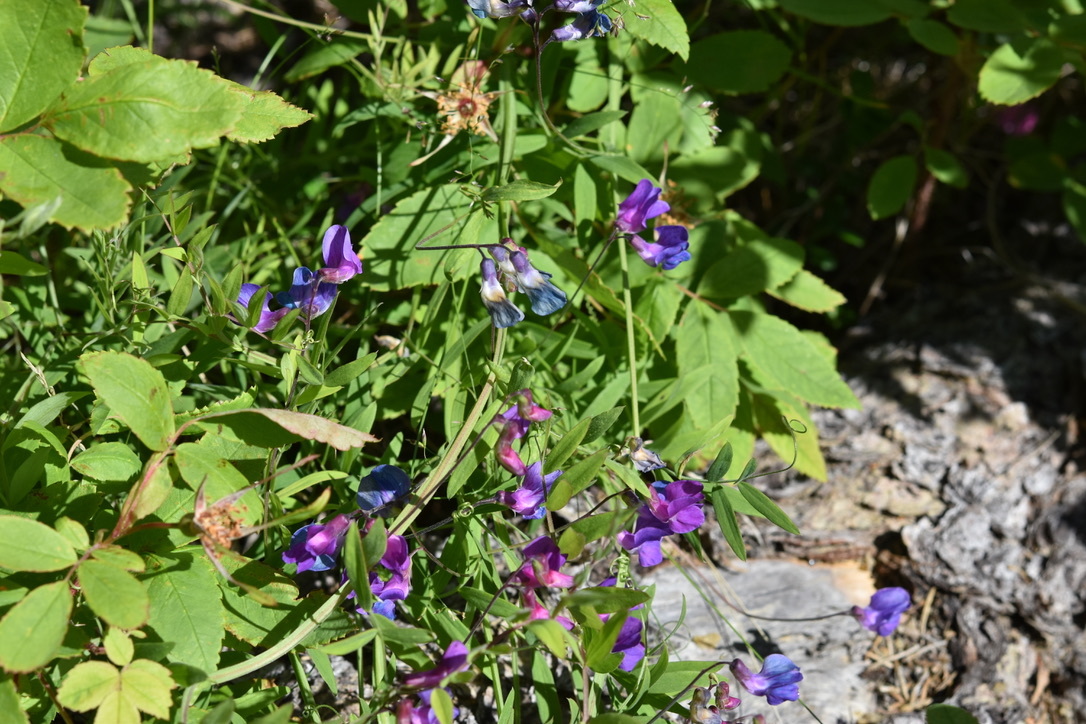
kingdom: Plantae
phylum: Tracheophyta
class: Magnoliopsida
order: Fabales
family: Fabaceae
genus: Lathyrus
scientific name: Lathyrus palustris
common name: Marsh pea
